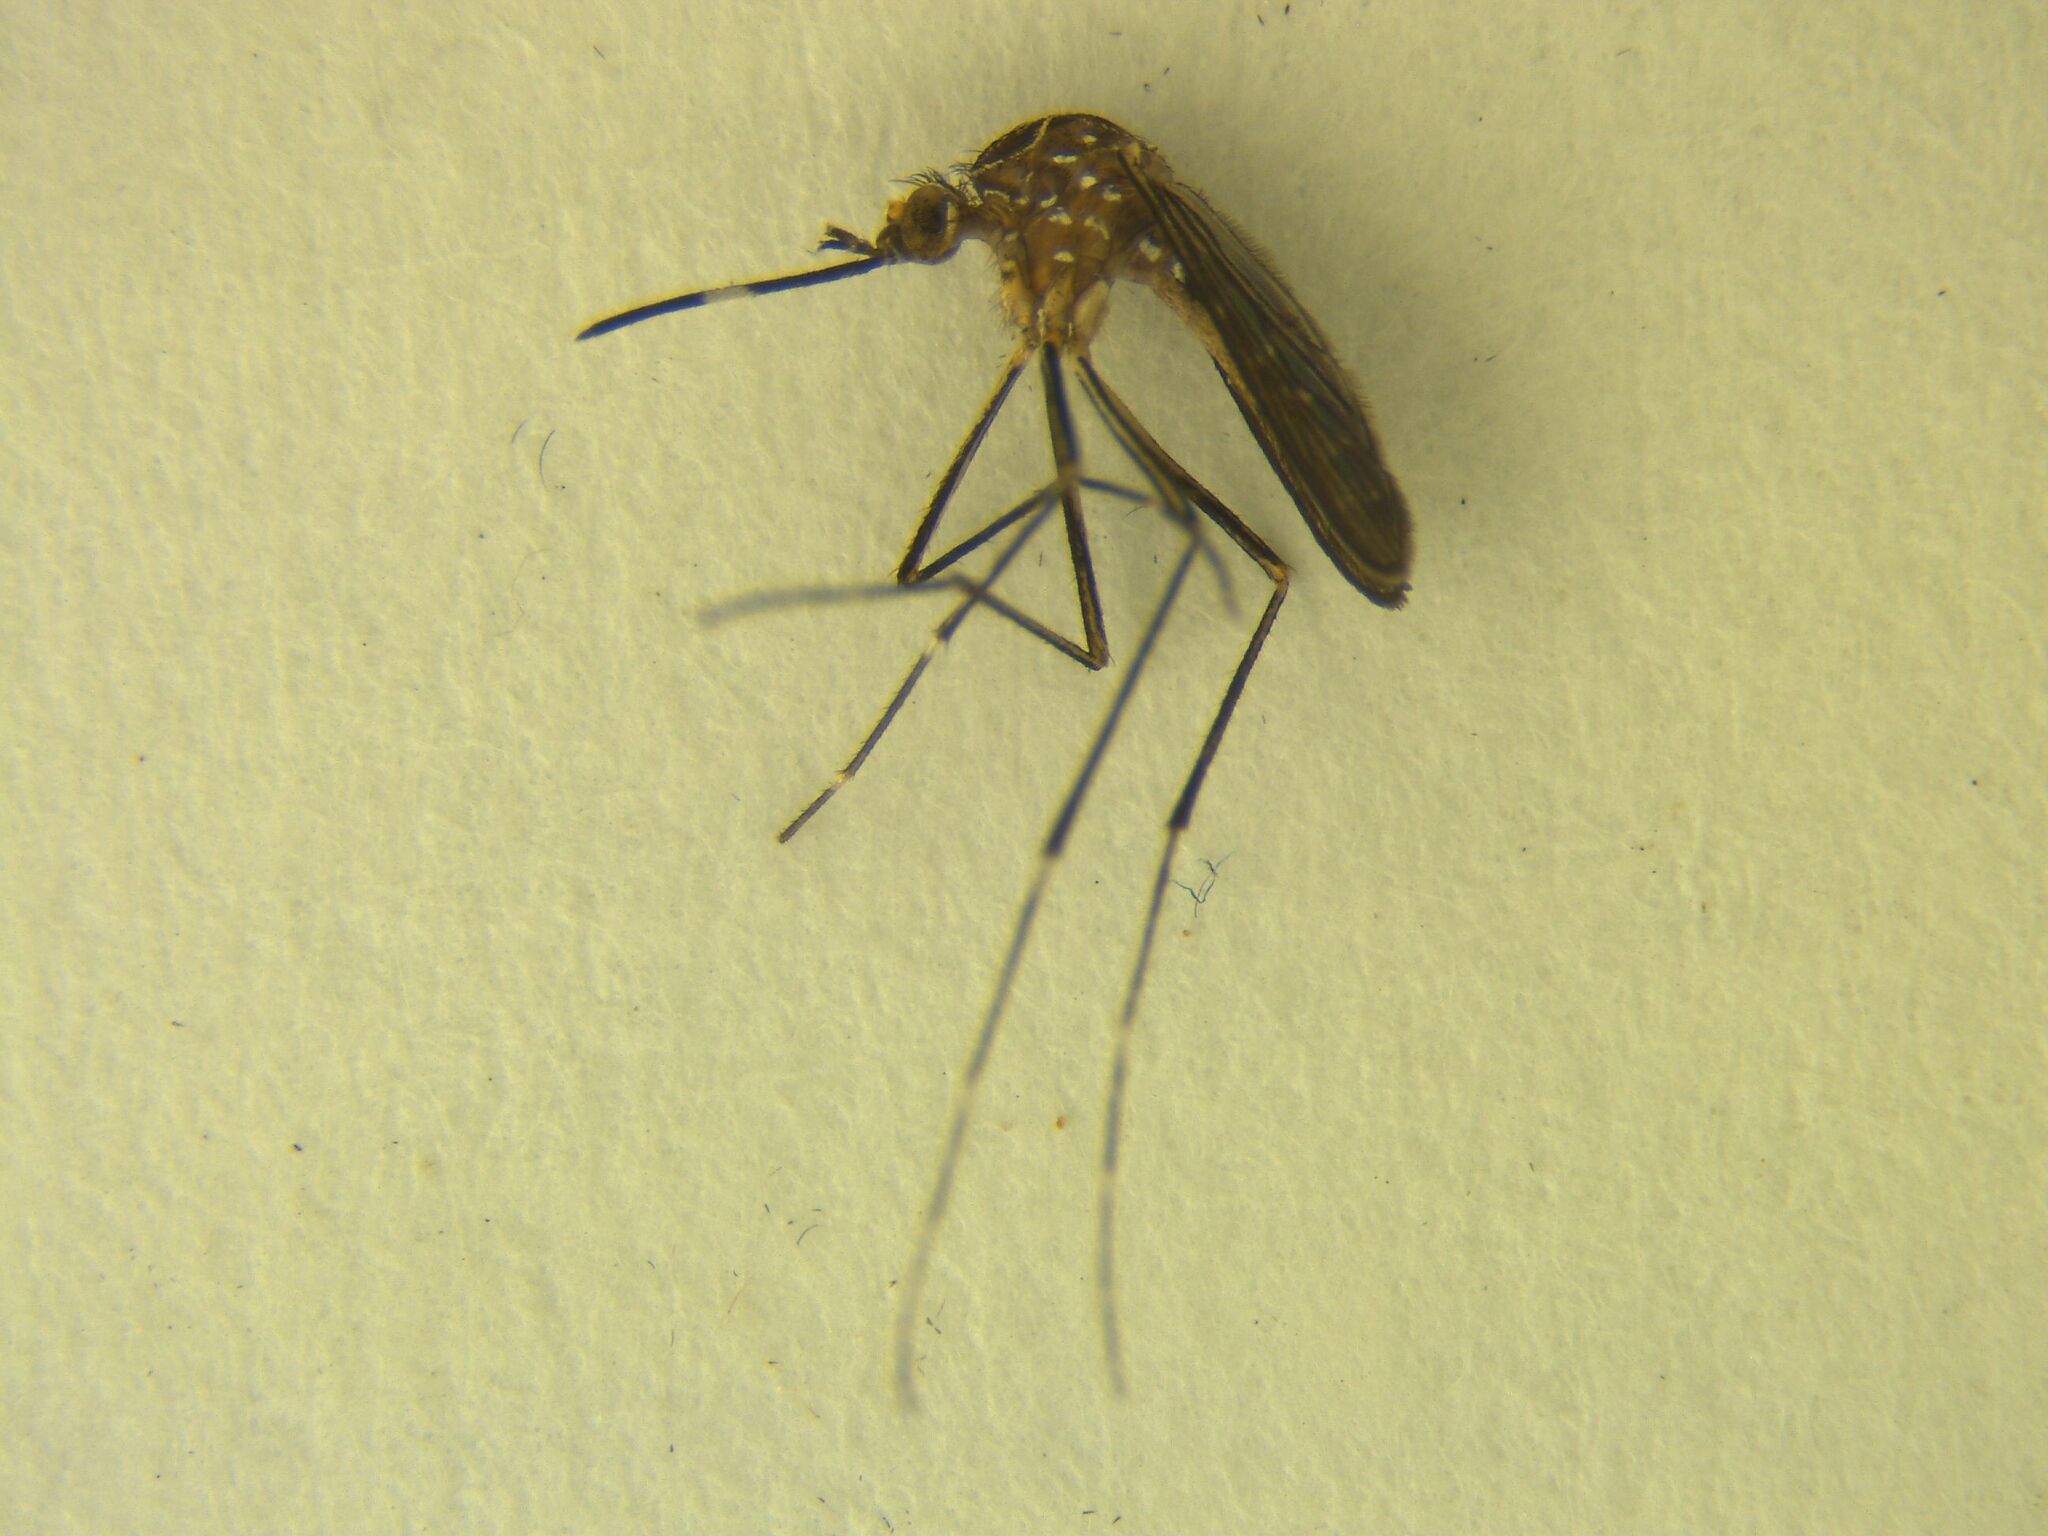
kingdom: Animalia
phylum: Arthropoda
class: Insecta
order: Diptera
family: Culicidae
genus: Aedes
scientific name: Aedes notoscriptus
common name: Australian backyard mosquito
